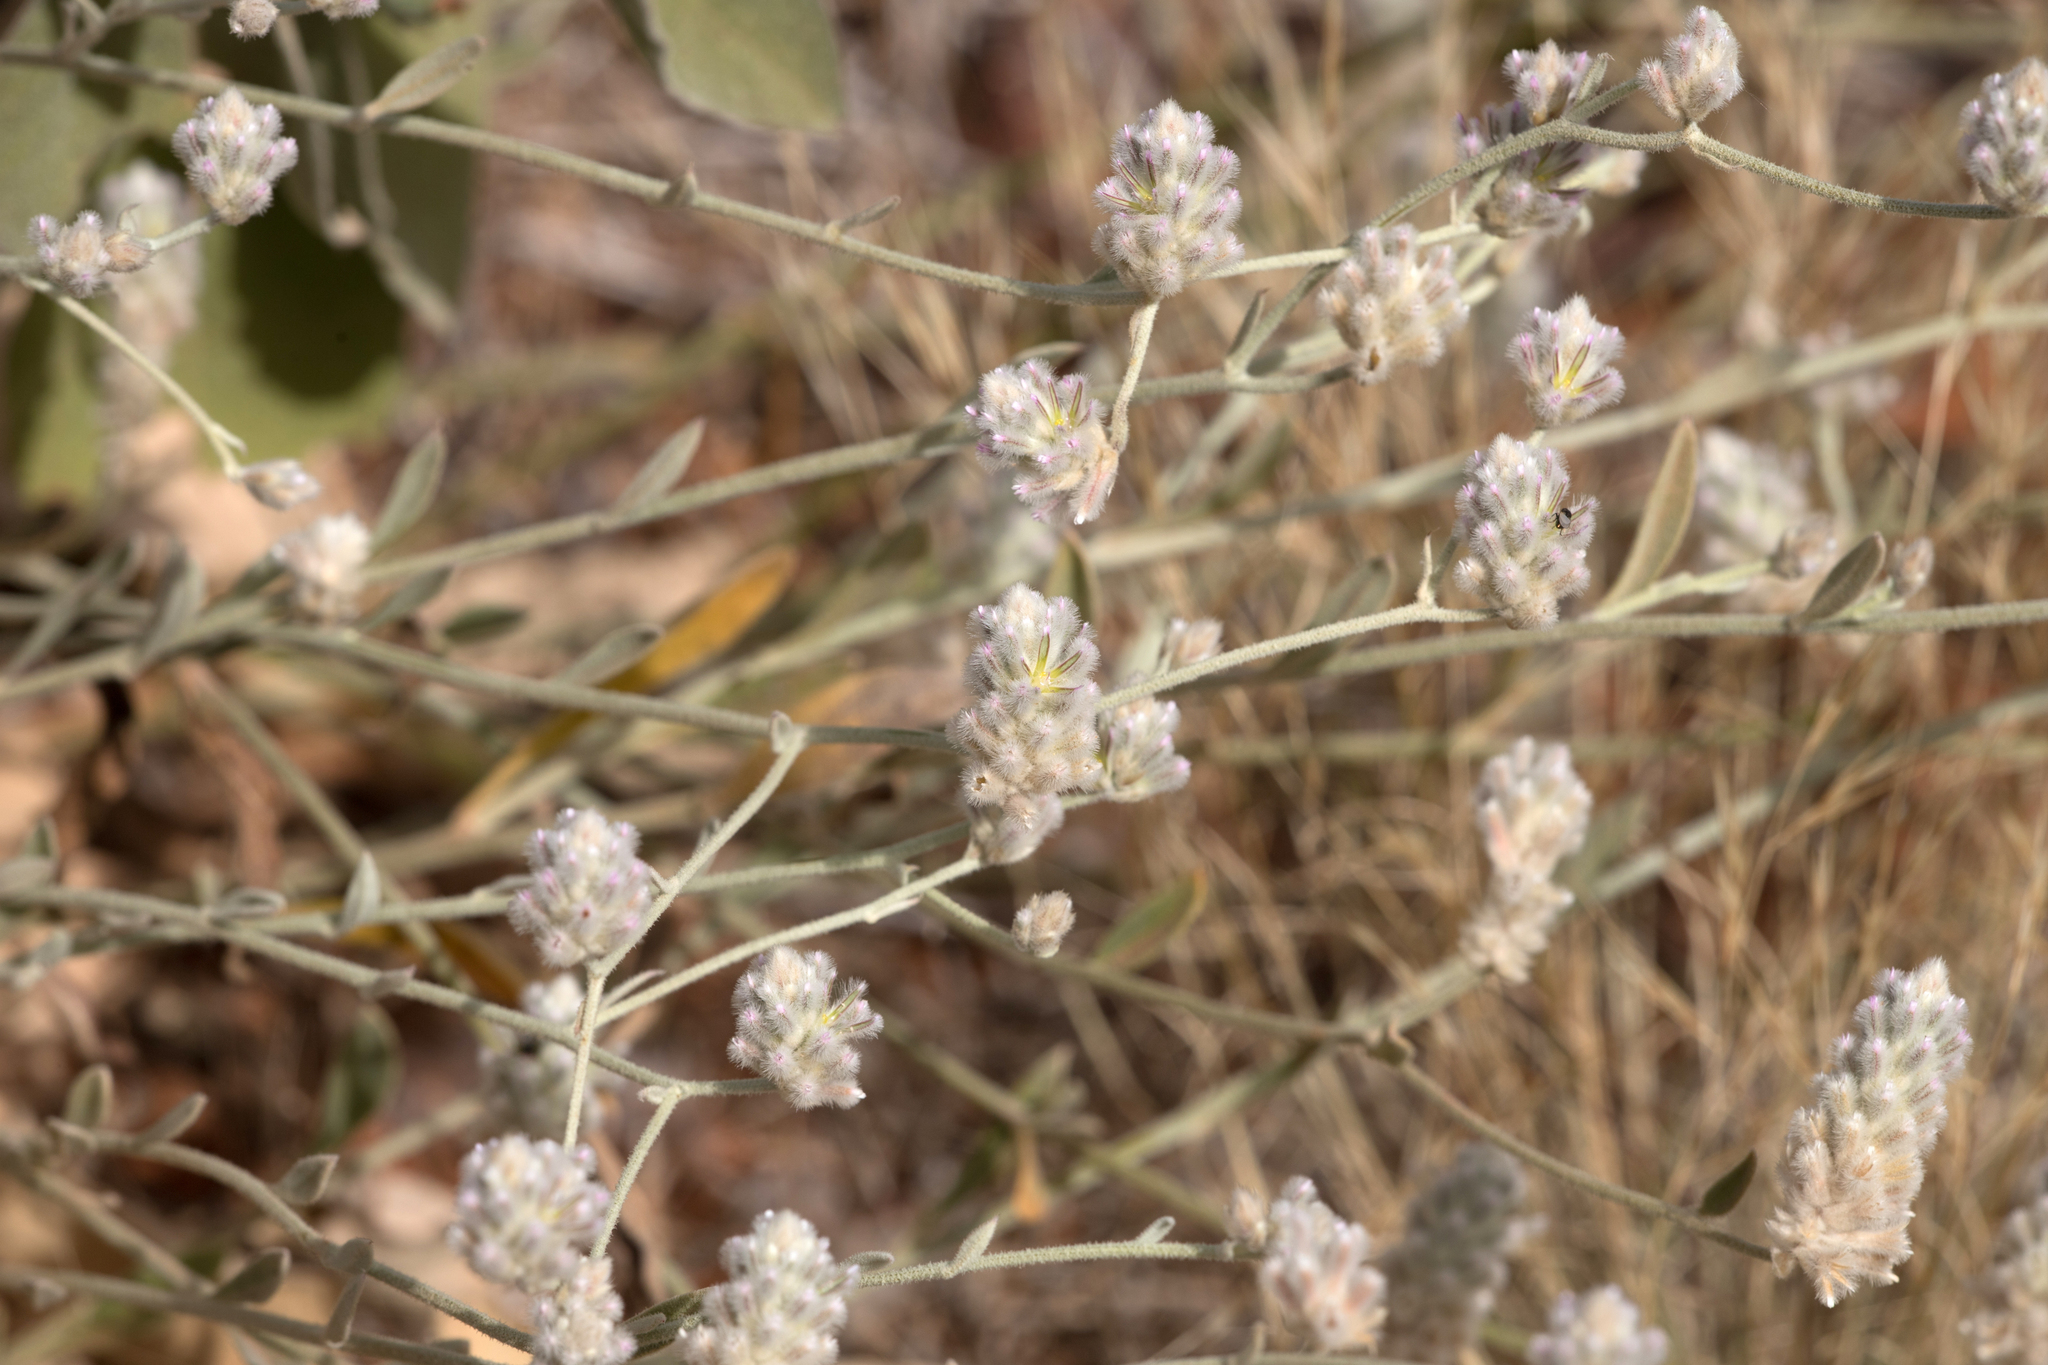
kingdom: Plantae
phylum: Tracheophyta
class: Magnoliopsida
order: Caryophyllales
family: Amaranthaceae
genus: Ptilotus
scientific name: Ptilotus parviflorus
